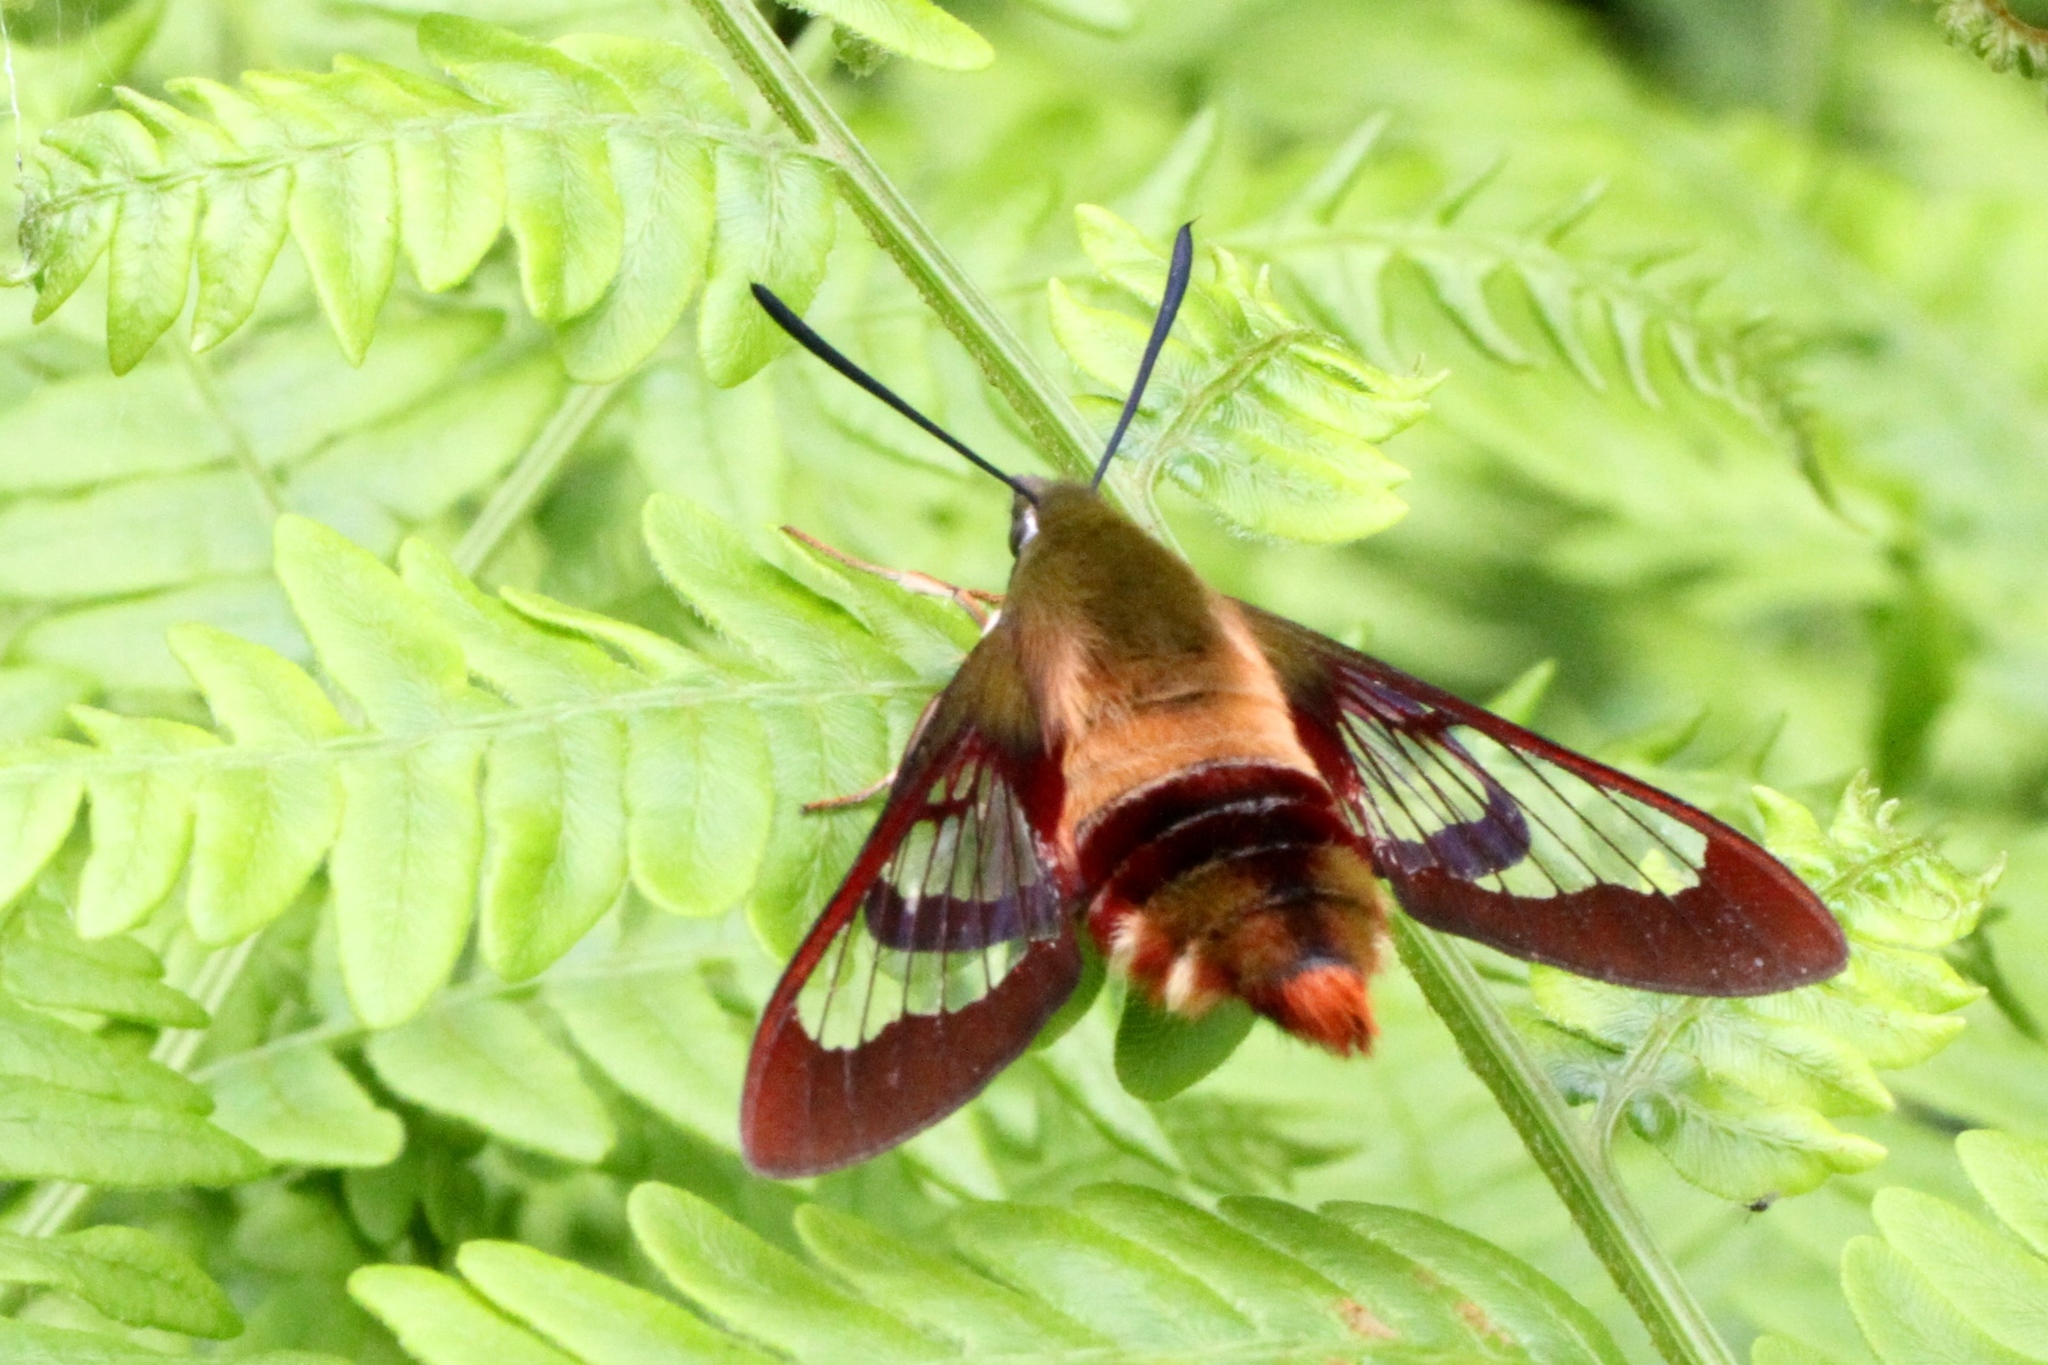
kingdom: Animalia
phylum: Arthropoda
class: Insecta
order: Lepidoptera
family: Sphingidae
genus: Hemaris
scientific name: Hemaris thysbe
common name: Common clear-wing
